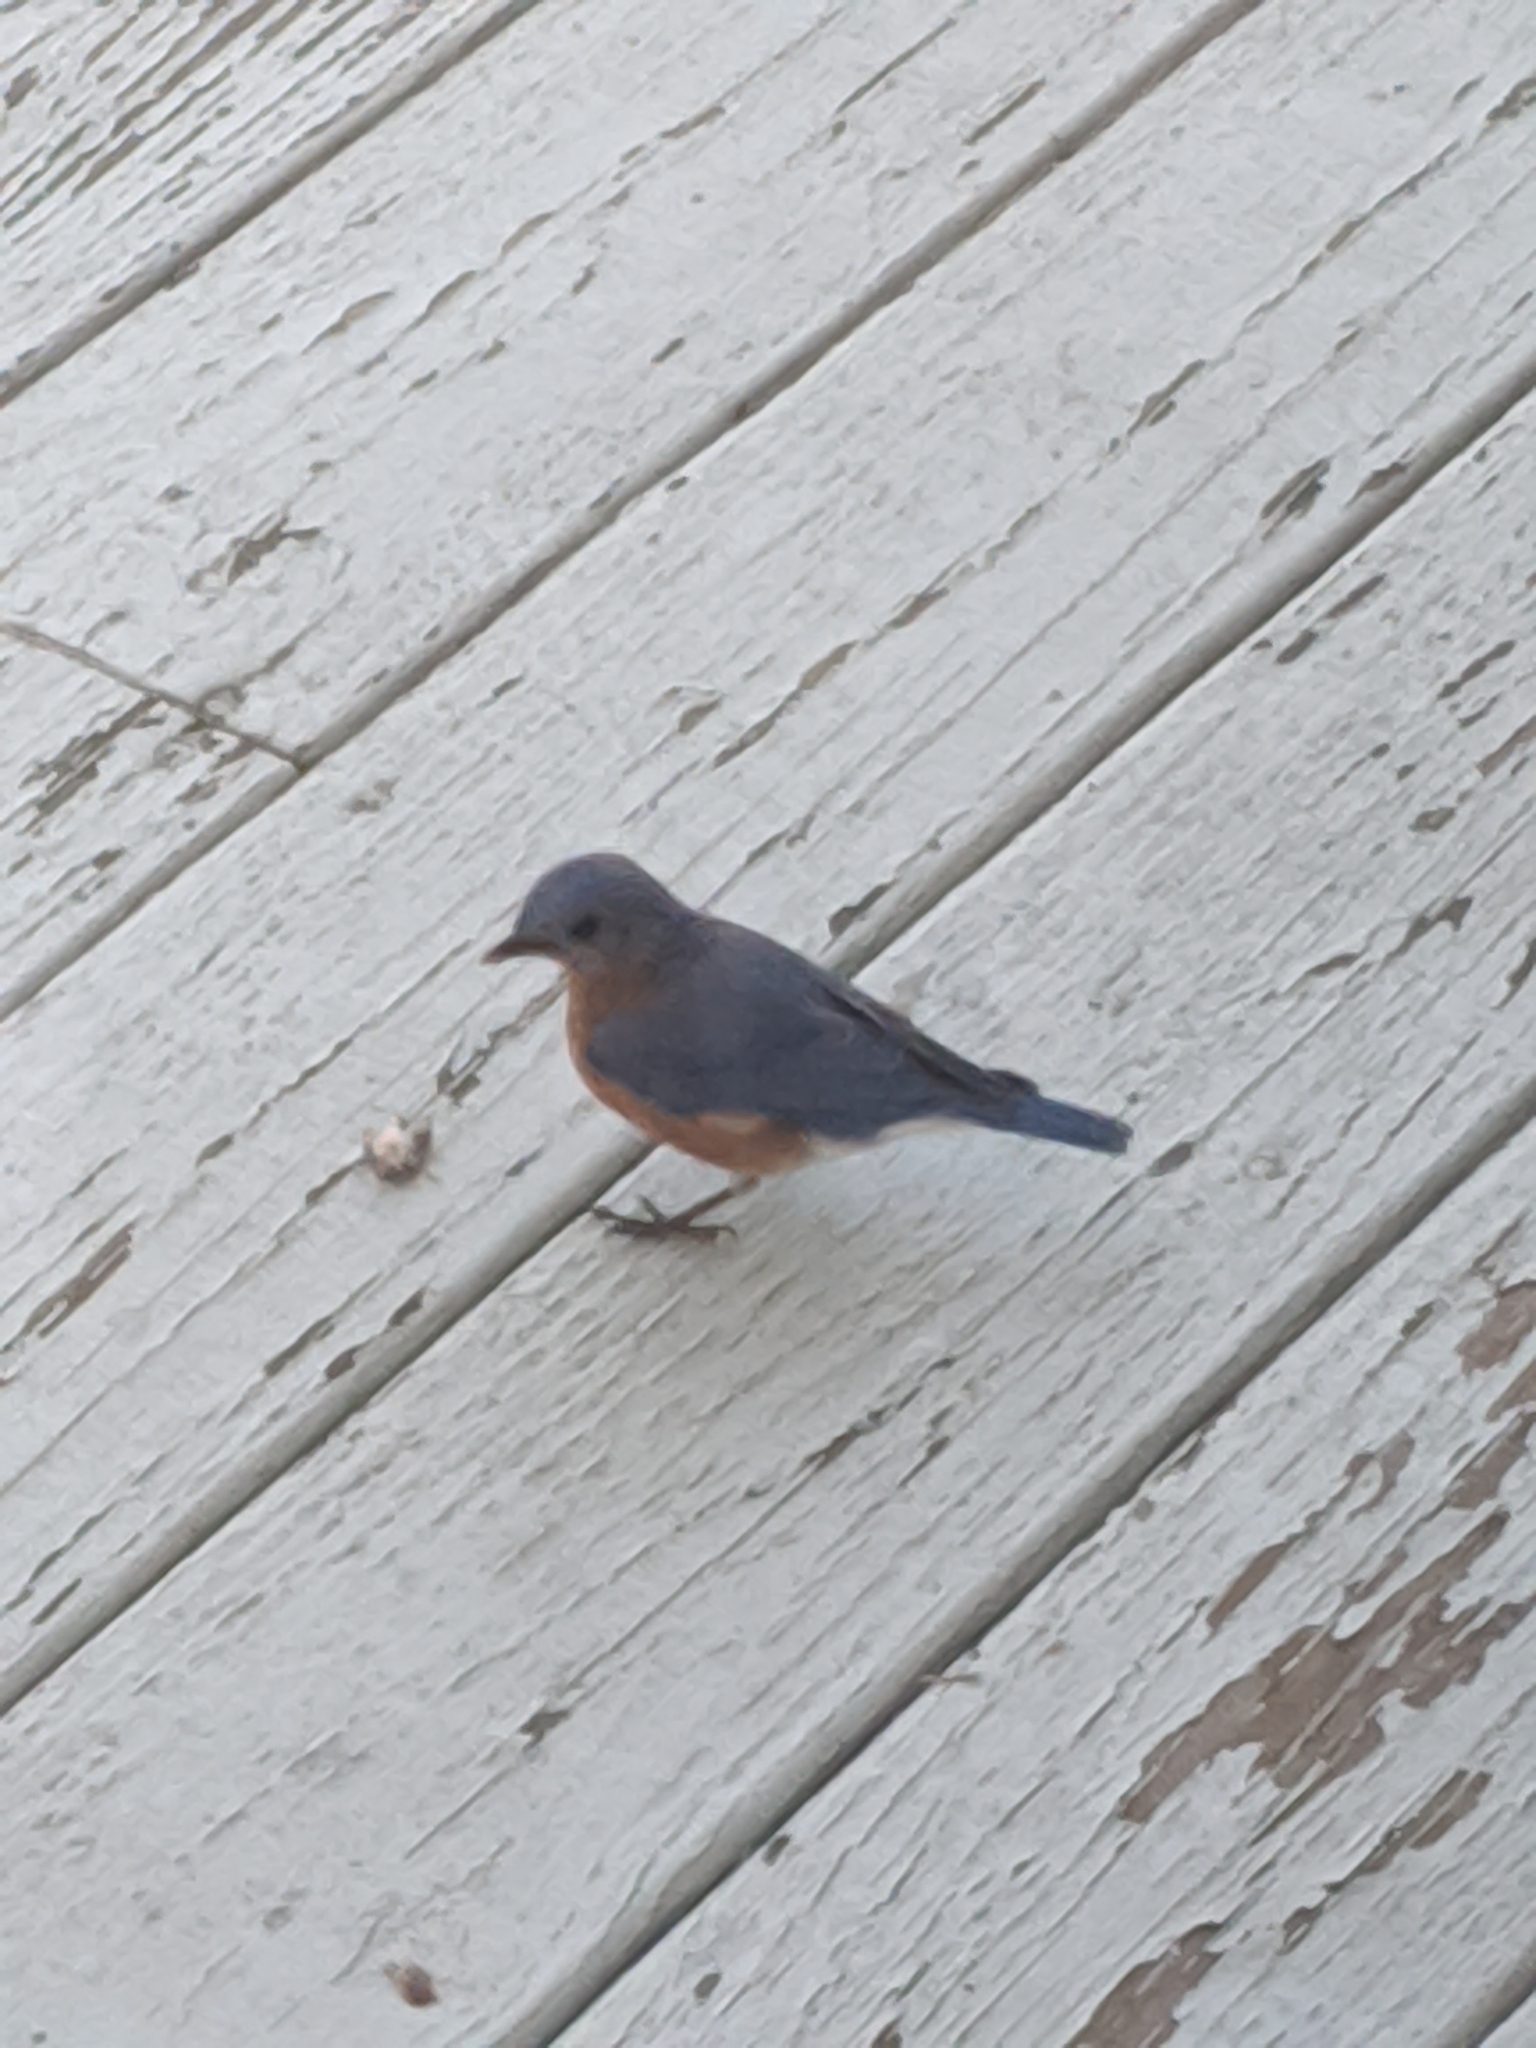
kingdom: Animalia
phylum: Chordata
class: Aves
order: Passeriformes
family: Turdidae
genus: Sialia
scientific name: Sialia sialis
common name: Eastern bluebird
